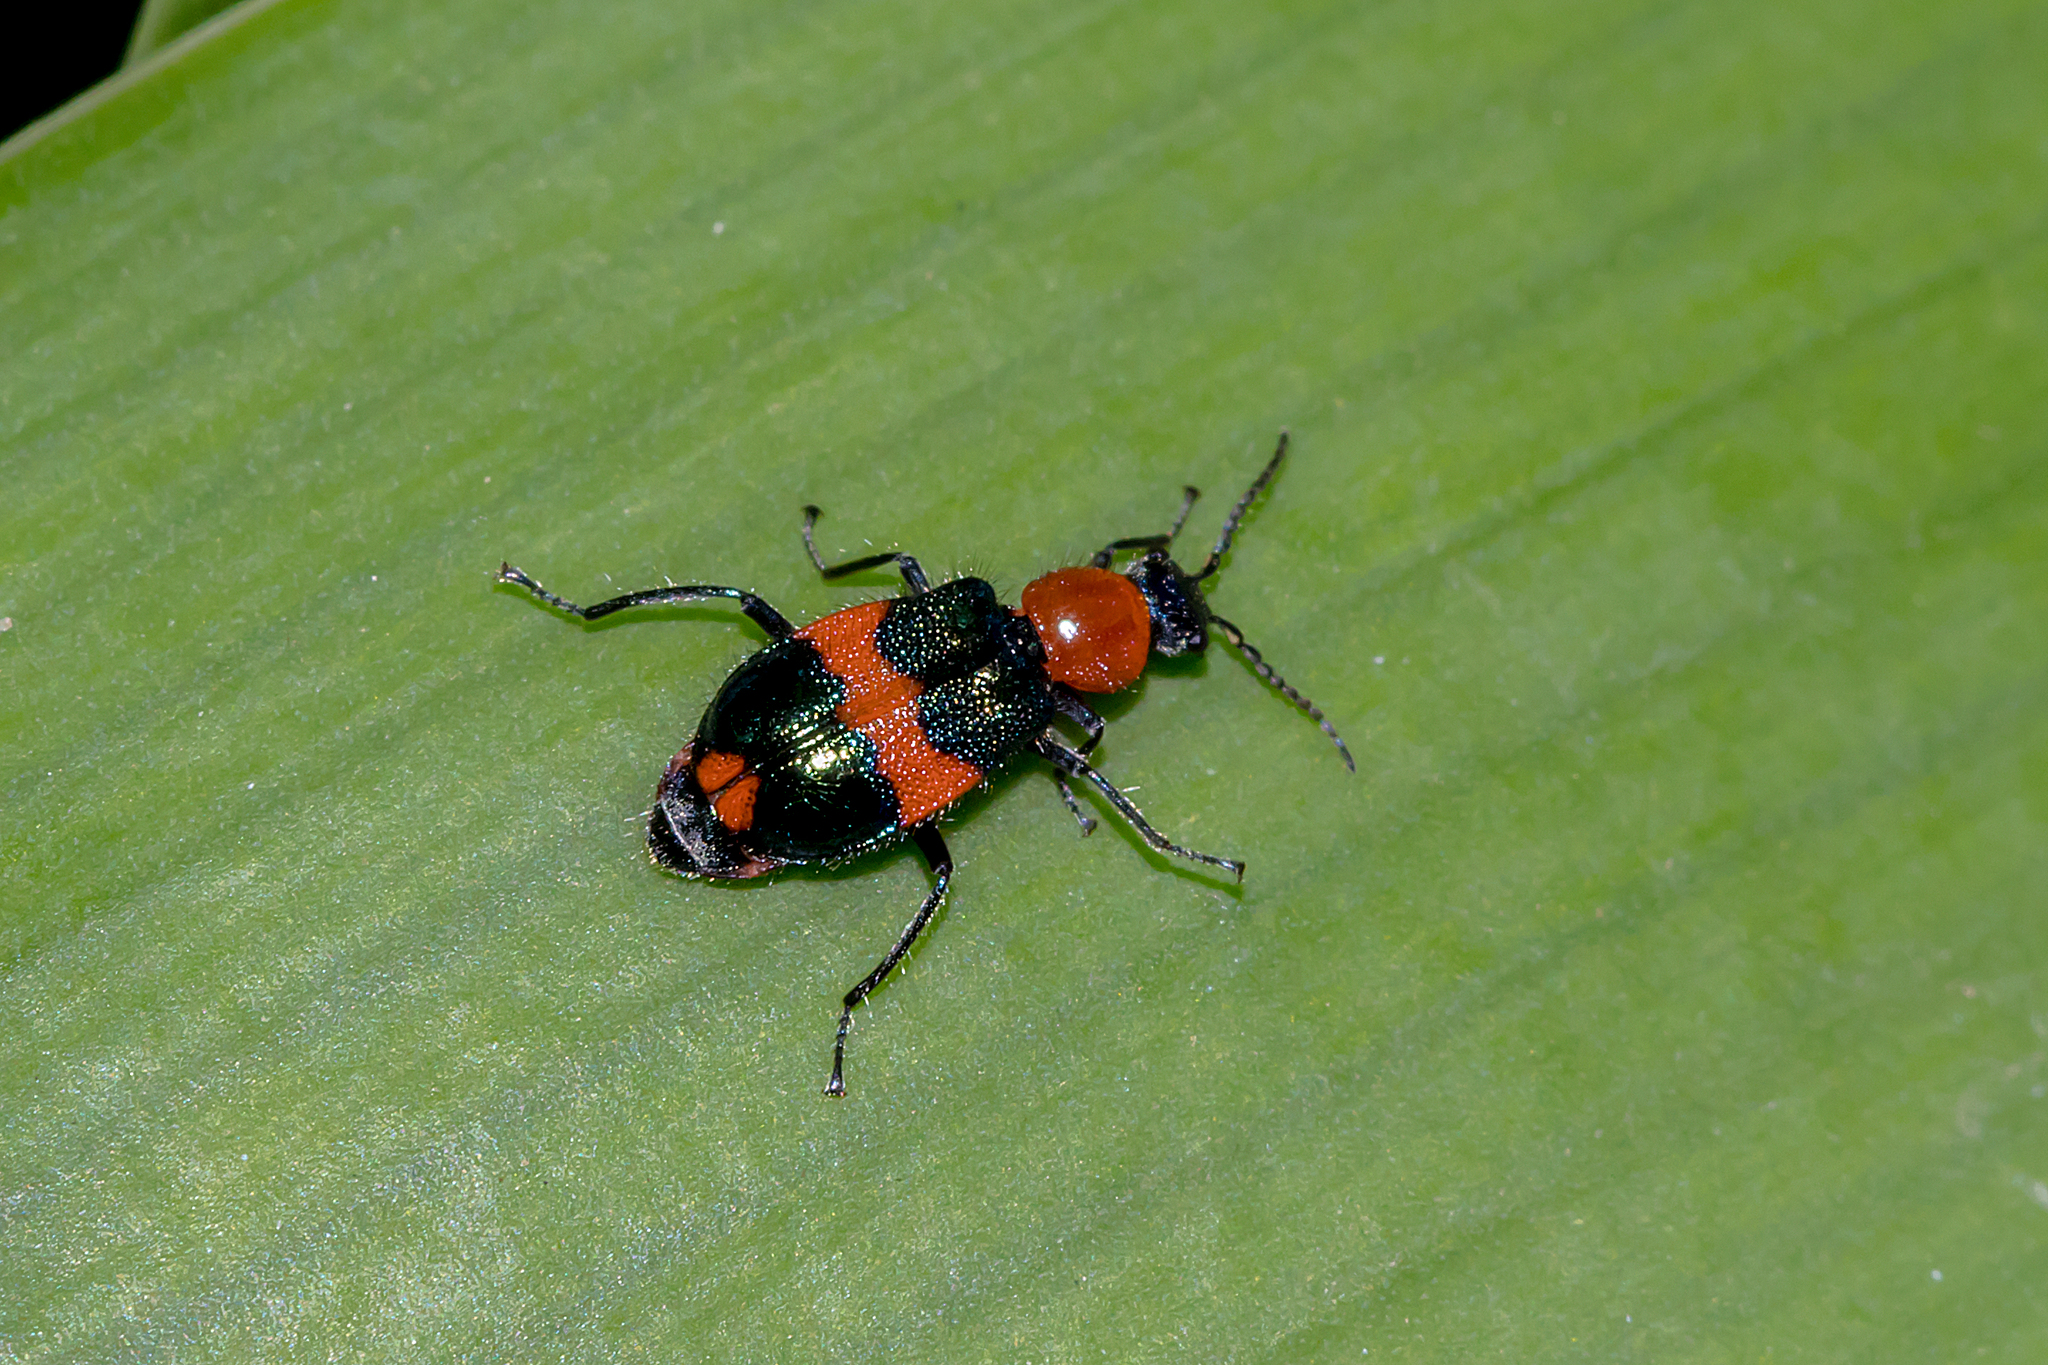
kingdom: Animalia
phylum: Arthropoda
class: Insecta
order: Coleoptera
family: Melyridae
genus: Dicranolaius
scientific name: Dicranolaius bellulus
